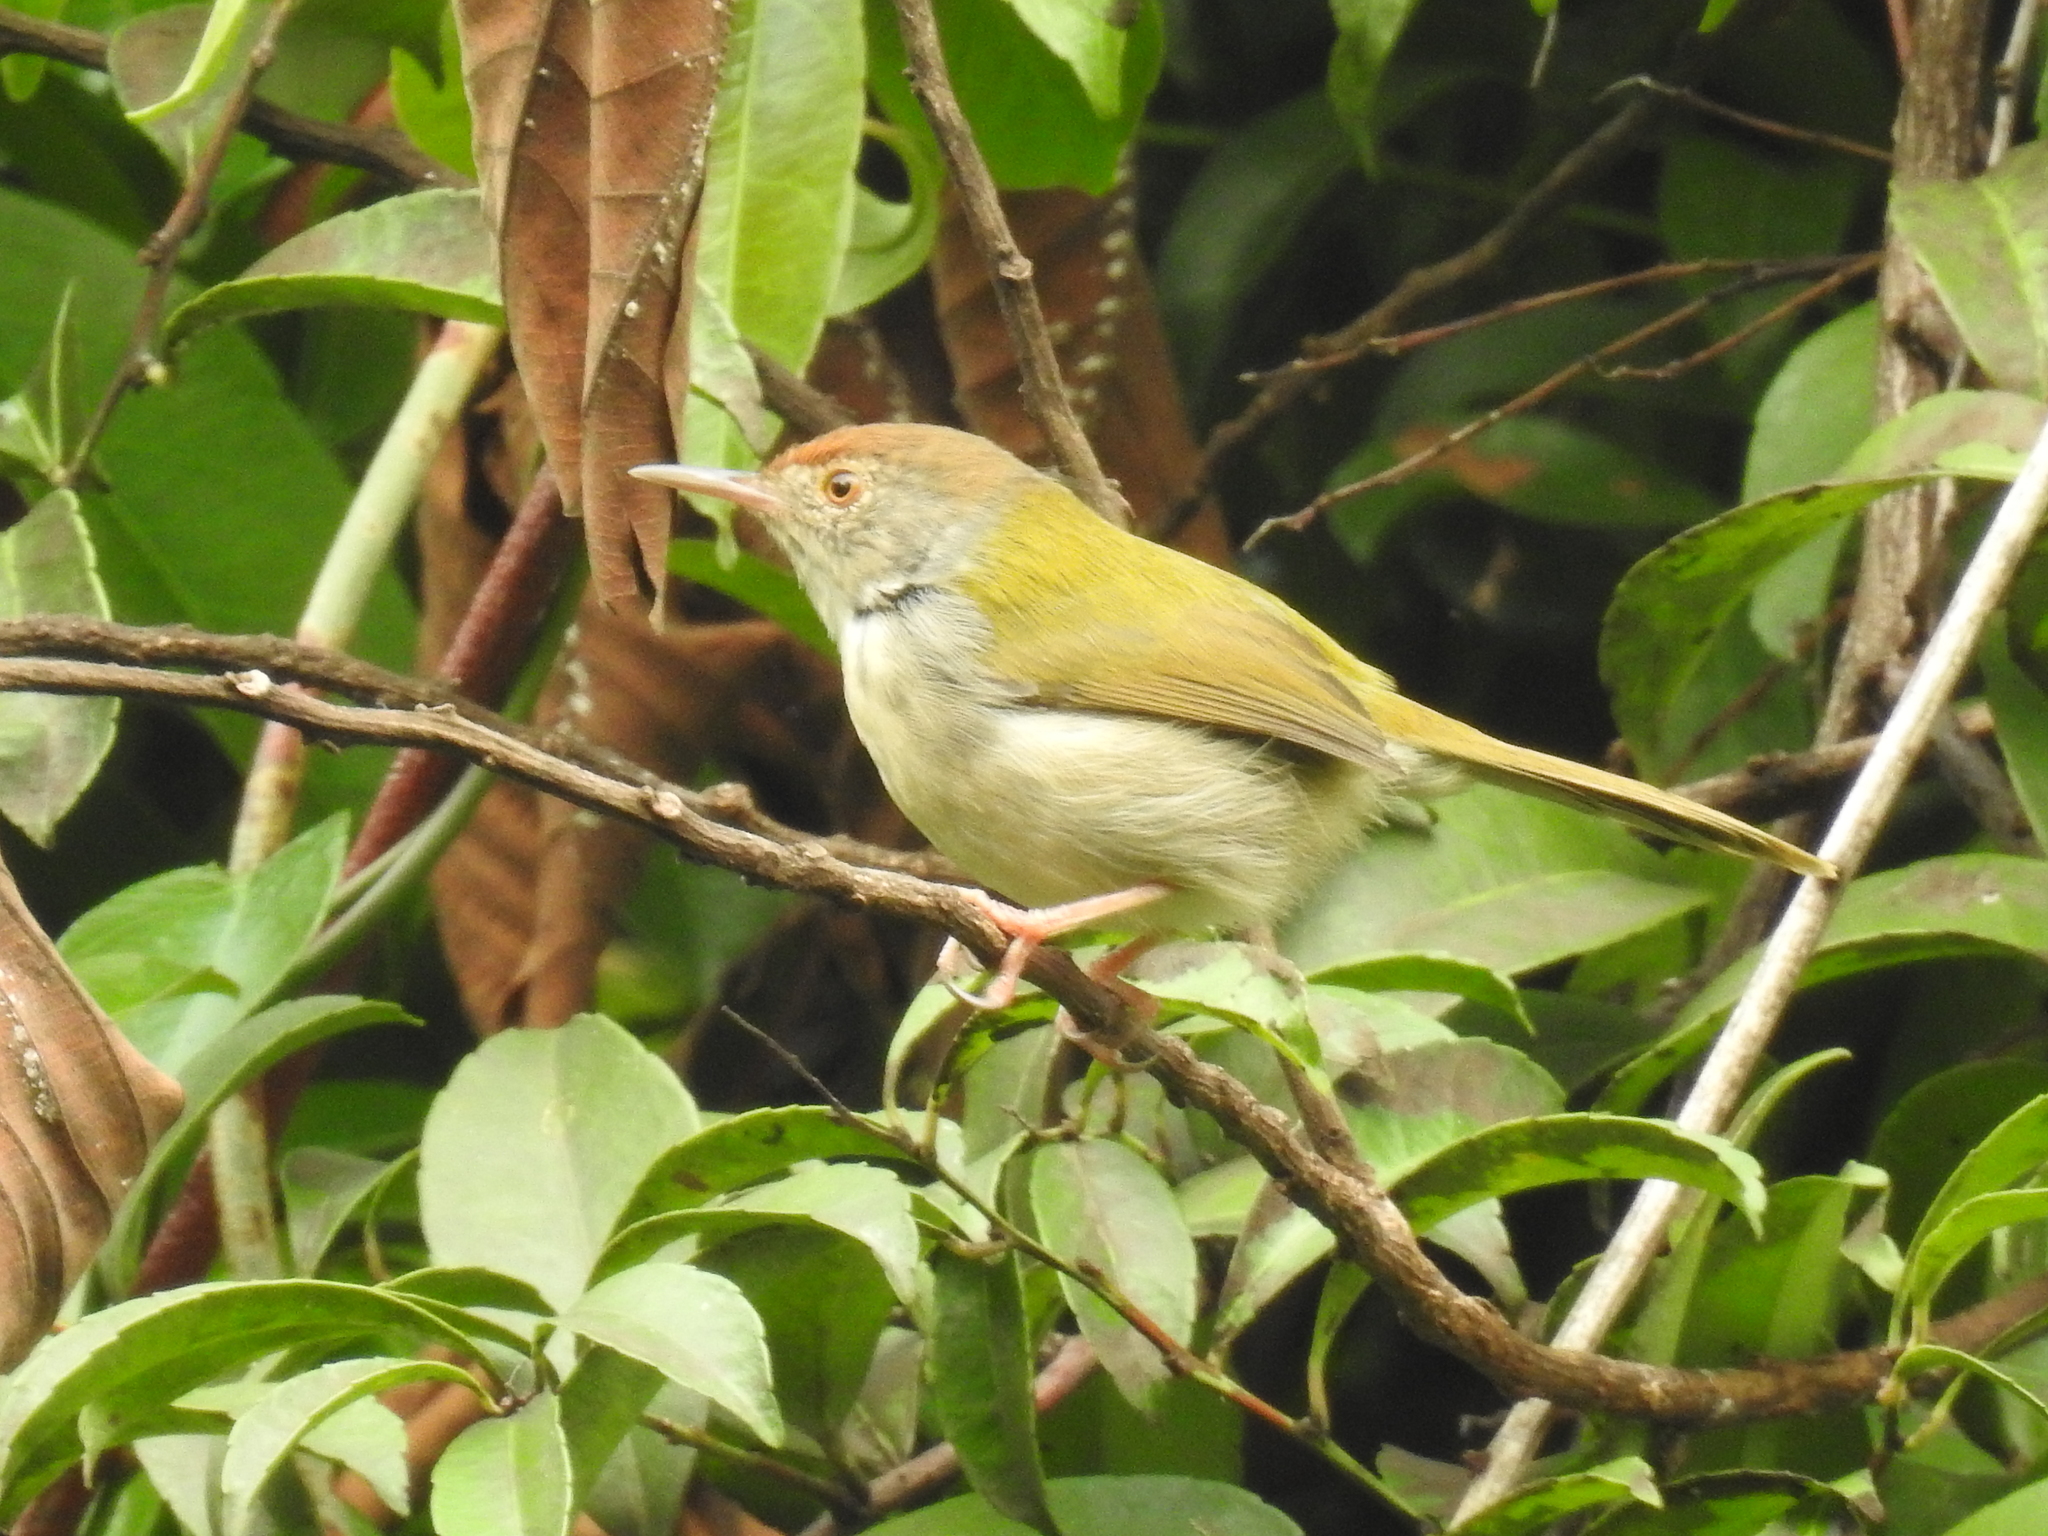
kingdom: Animalia
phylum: Chordata
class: Aves
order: Passeriformes
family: Cisticolidae
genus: Orthotomus
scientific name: Orthotomus sutorius
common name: Common tailorbird
